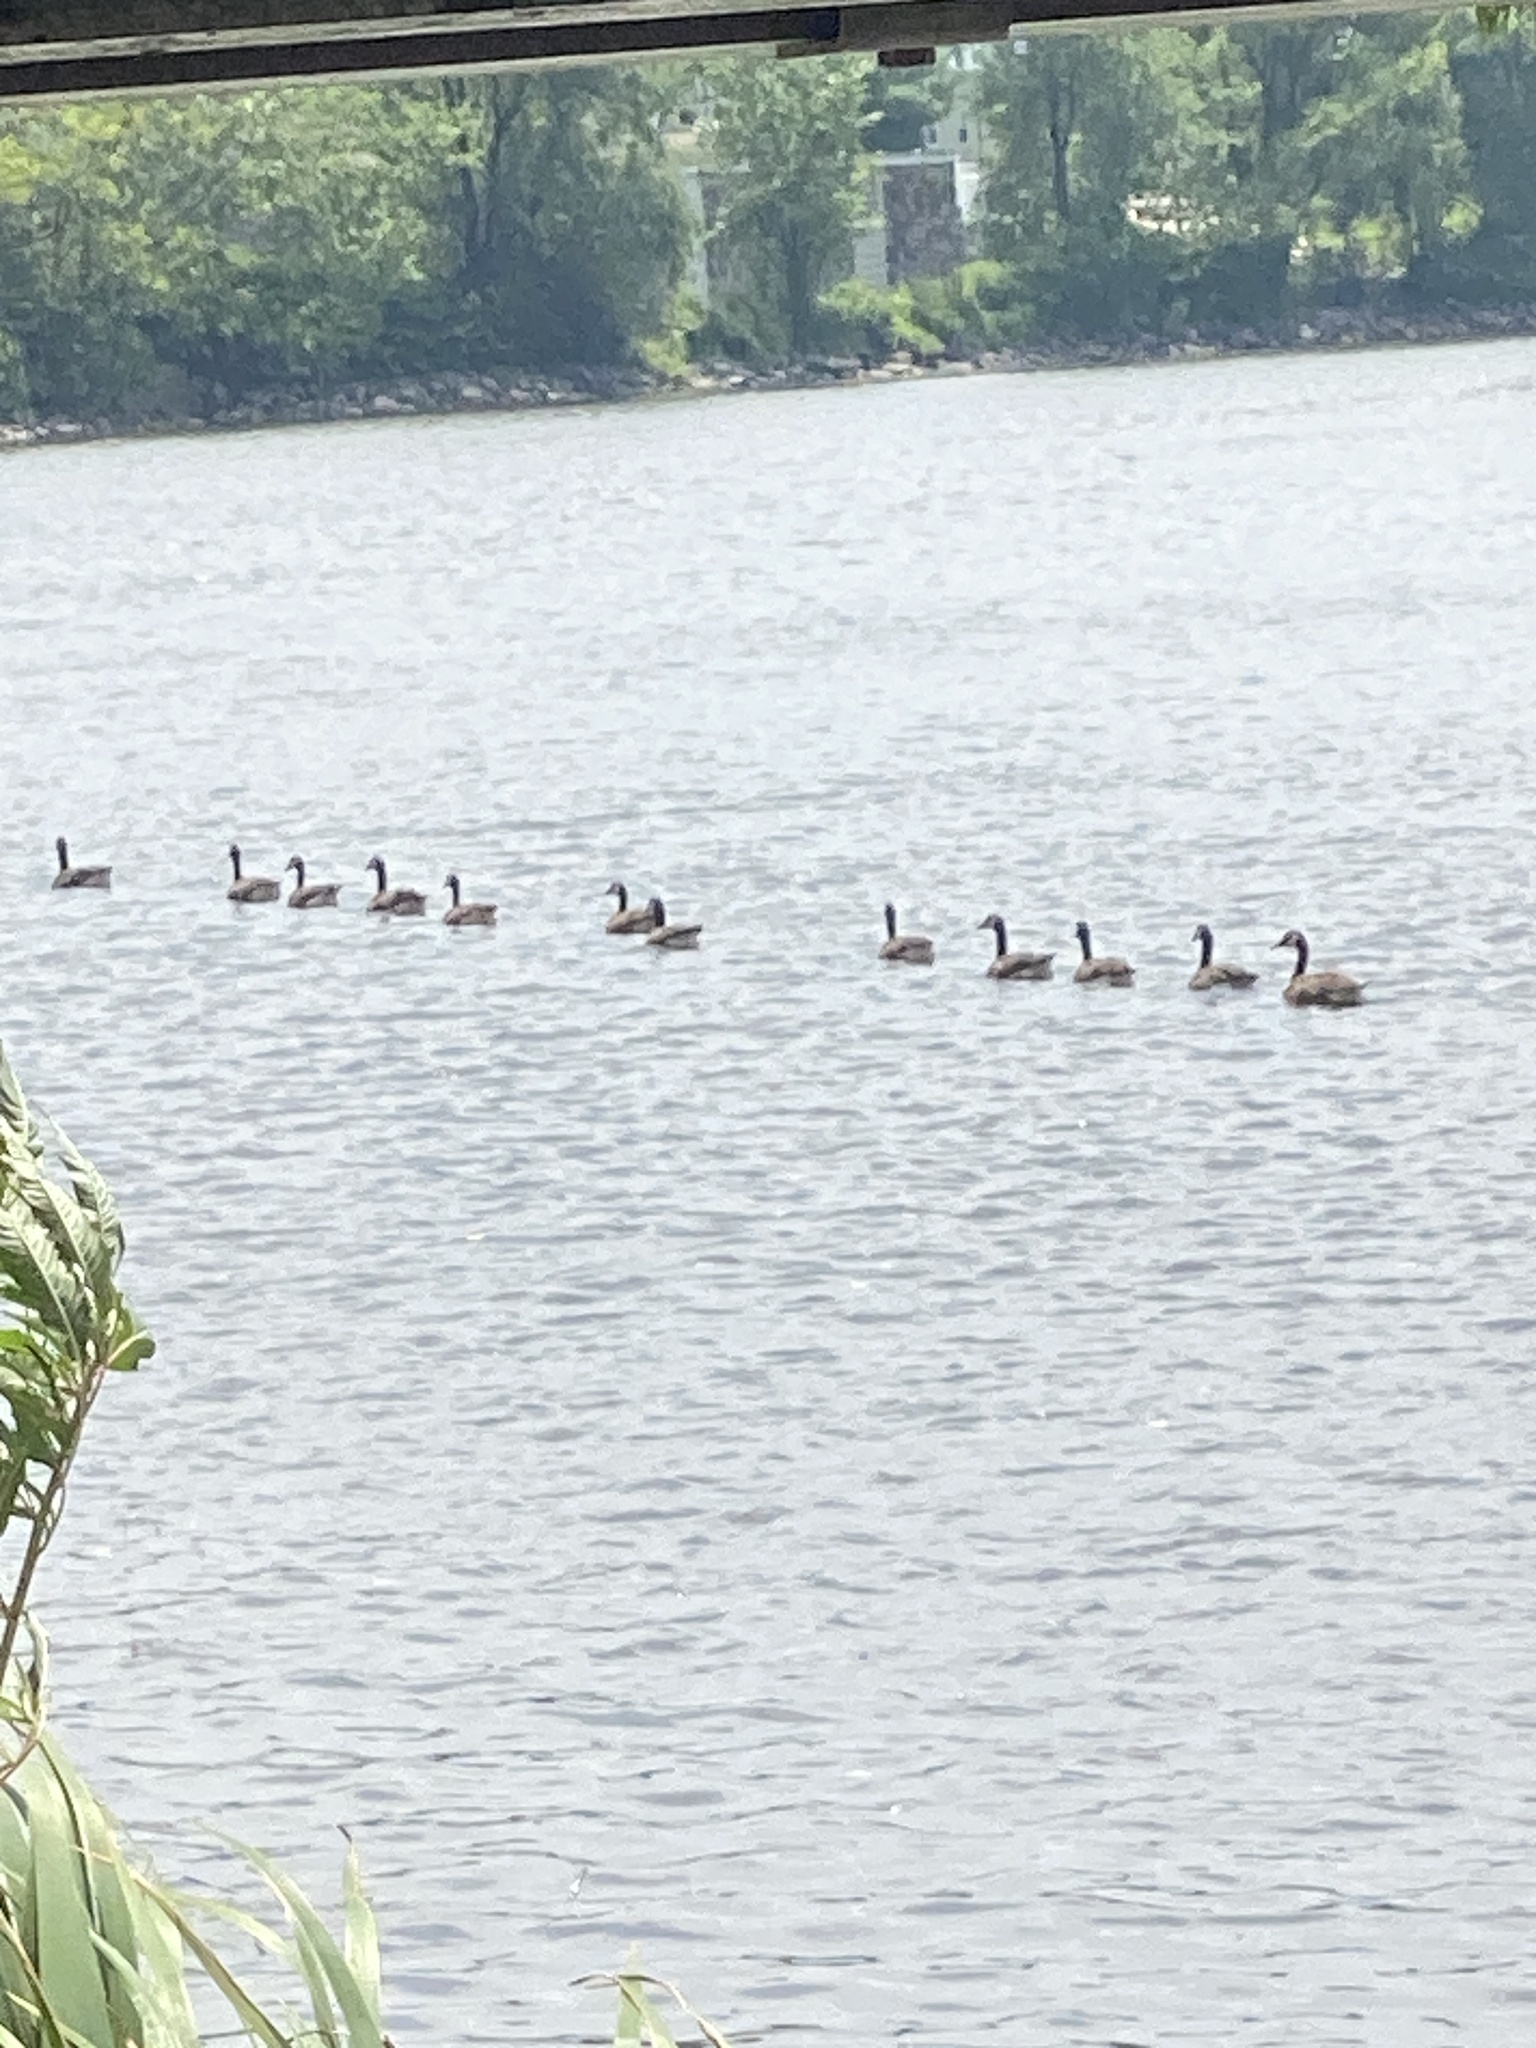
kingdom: Animalia
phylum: Chordata
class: Aves
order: Anseriformes
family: Anatidae
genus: Branta
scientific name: Branta canadensis
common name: Canada goose
